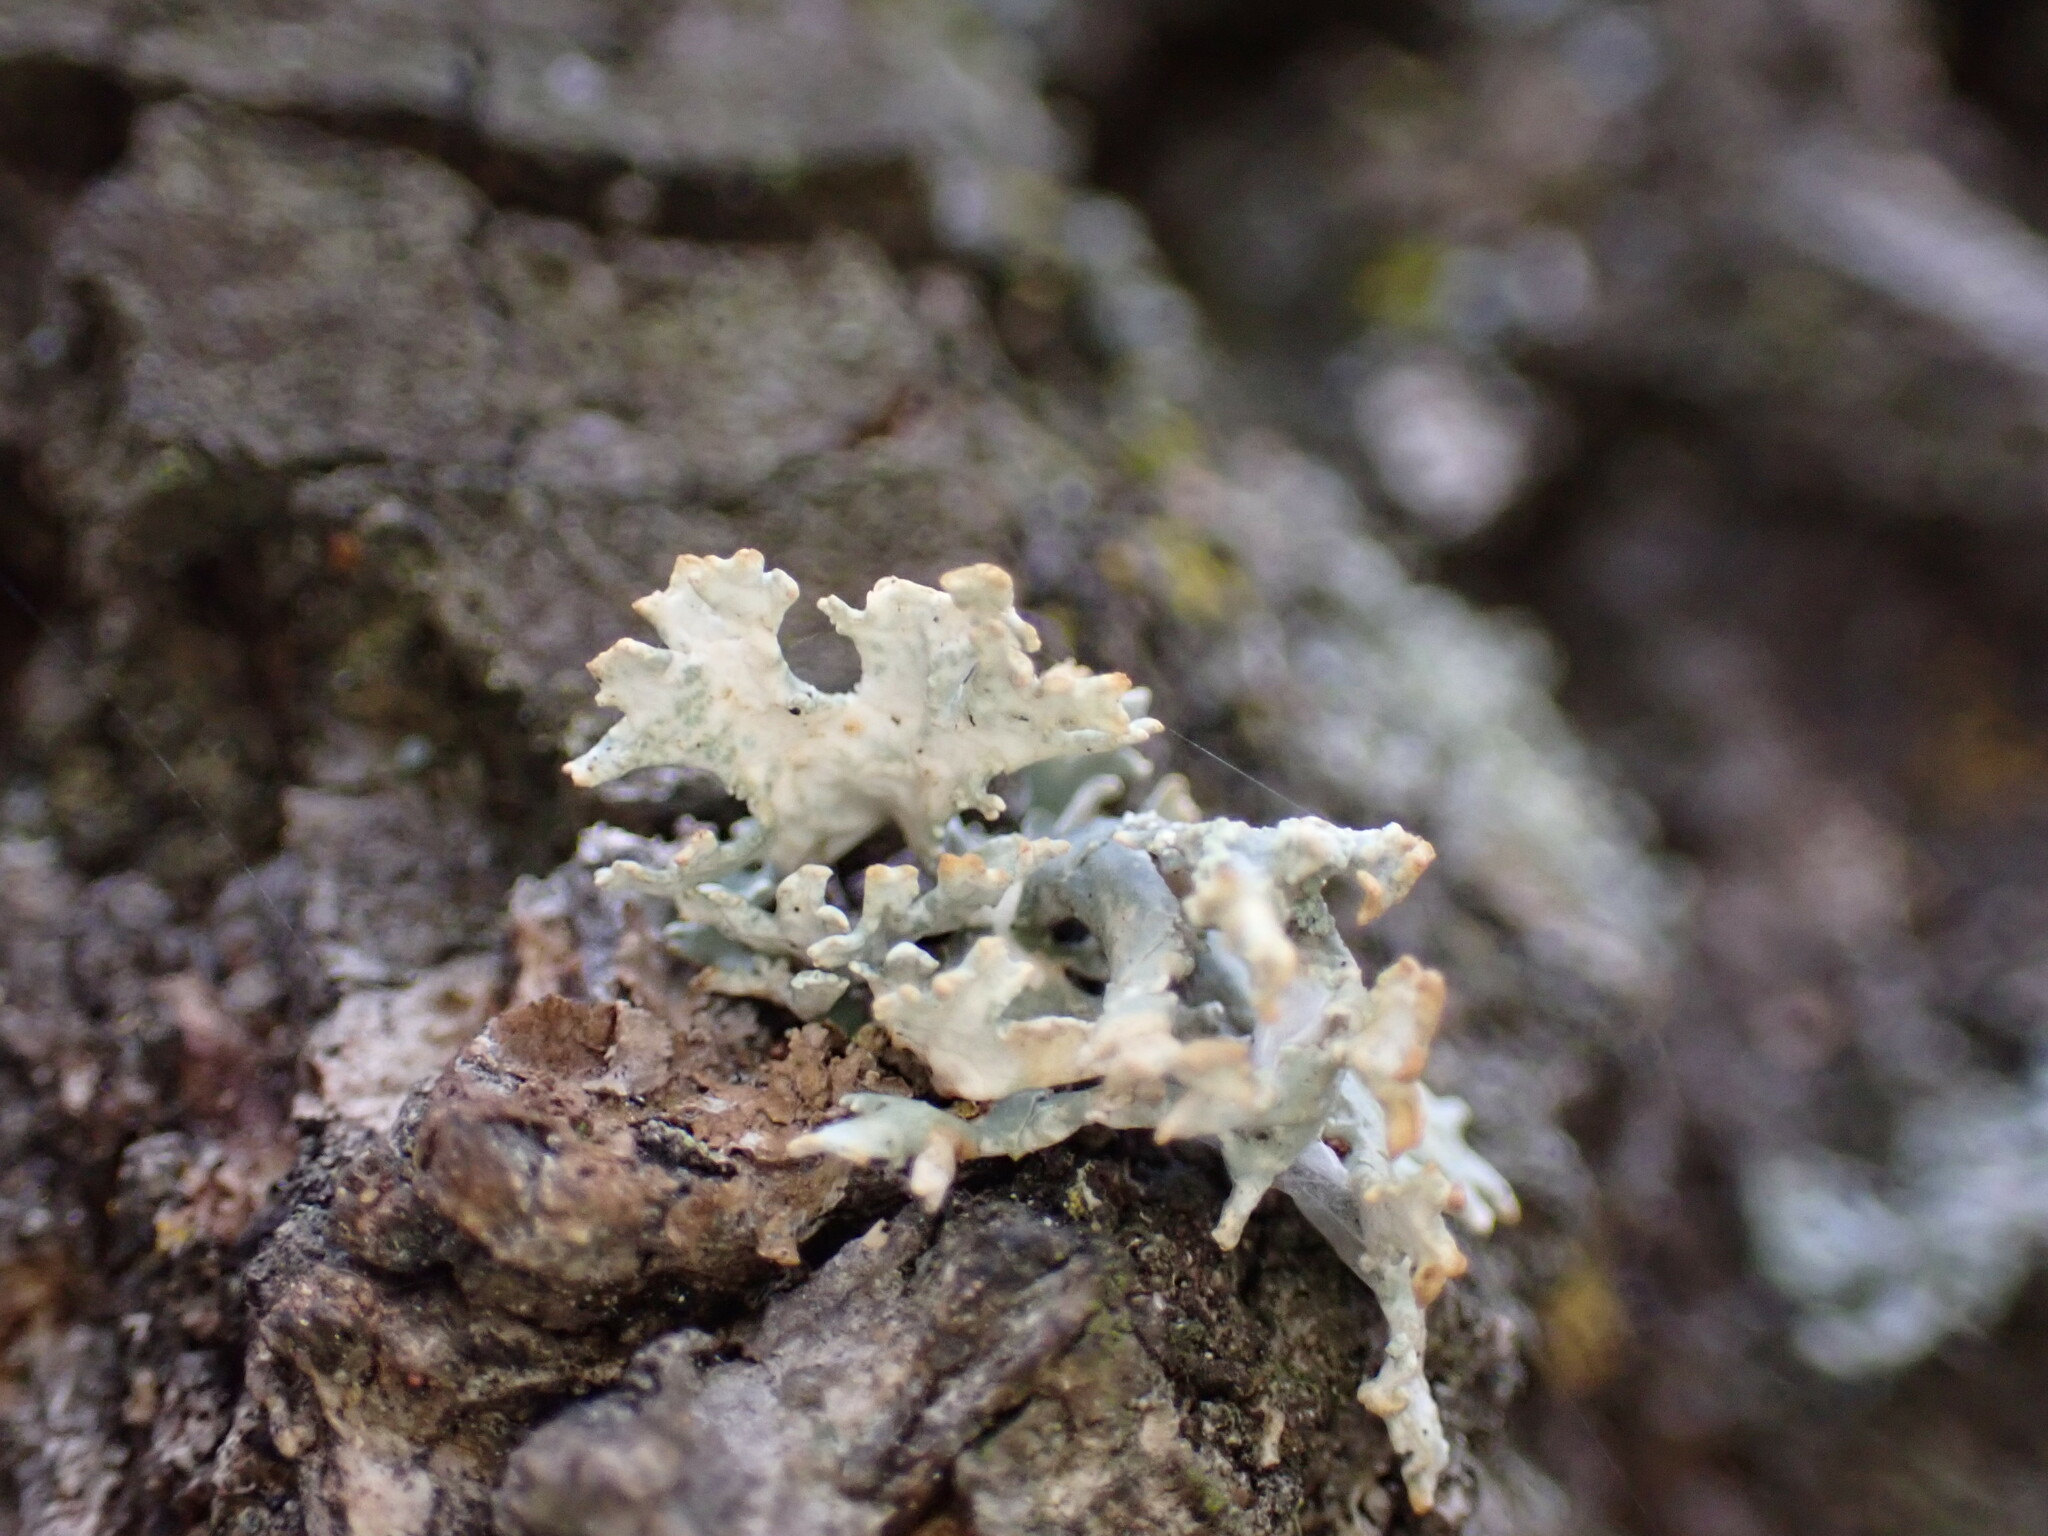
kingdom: Fungi
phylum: Ascomycota
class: Lecanoromycetes
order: Lecanorales
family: Parmeliaceae
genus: Evernia
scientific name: Evernia prunastri
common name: Oak moss
